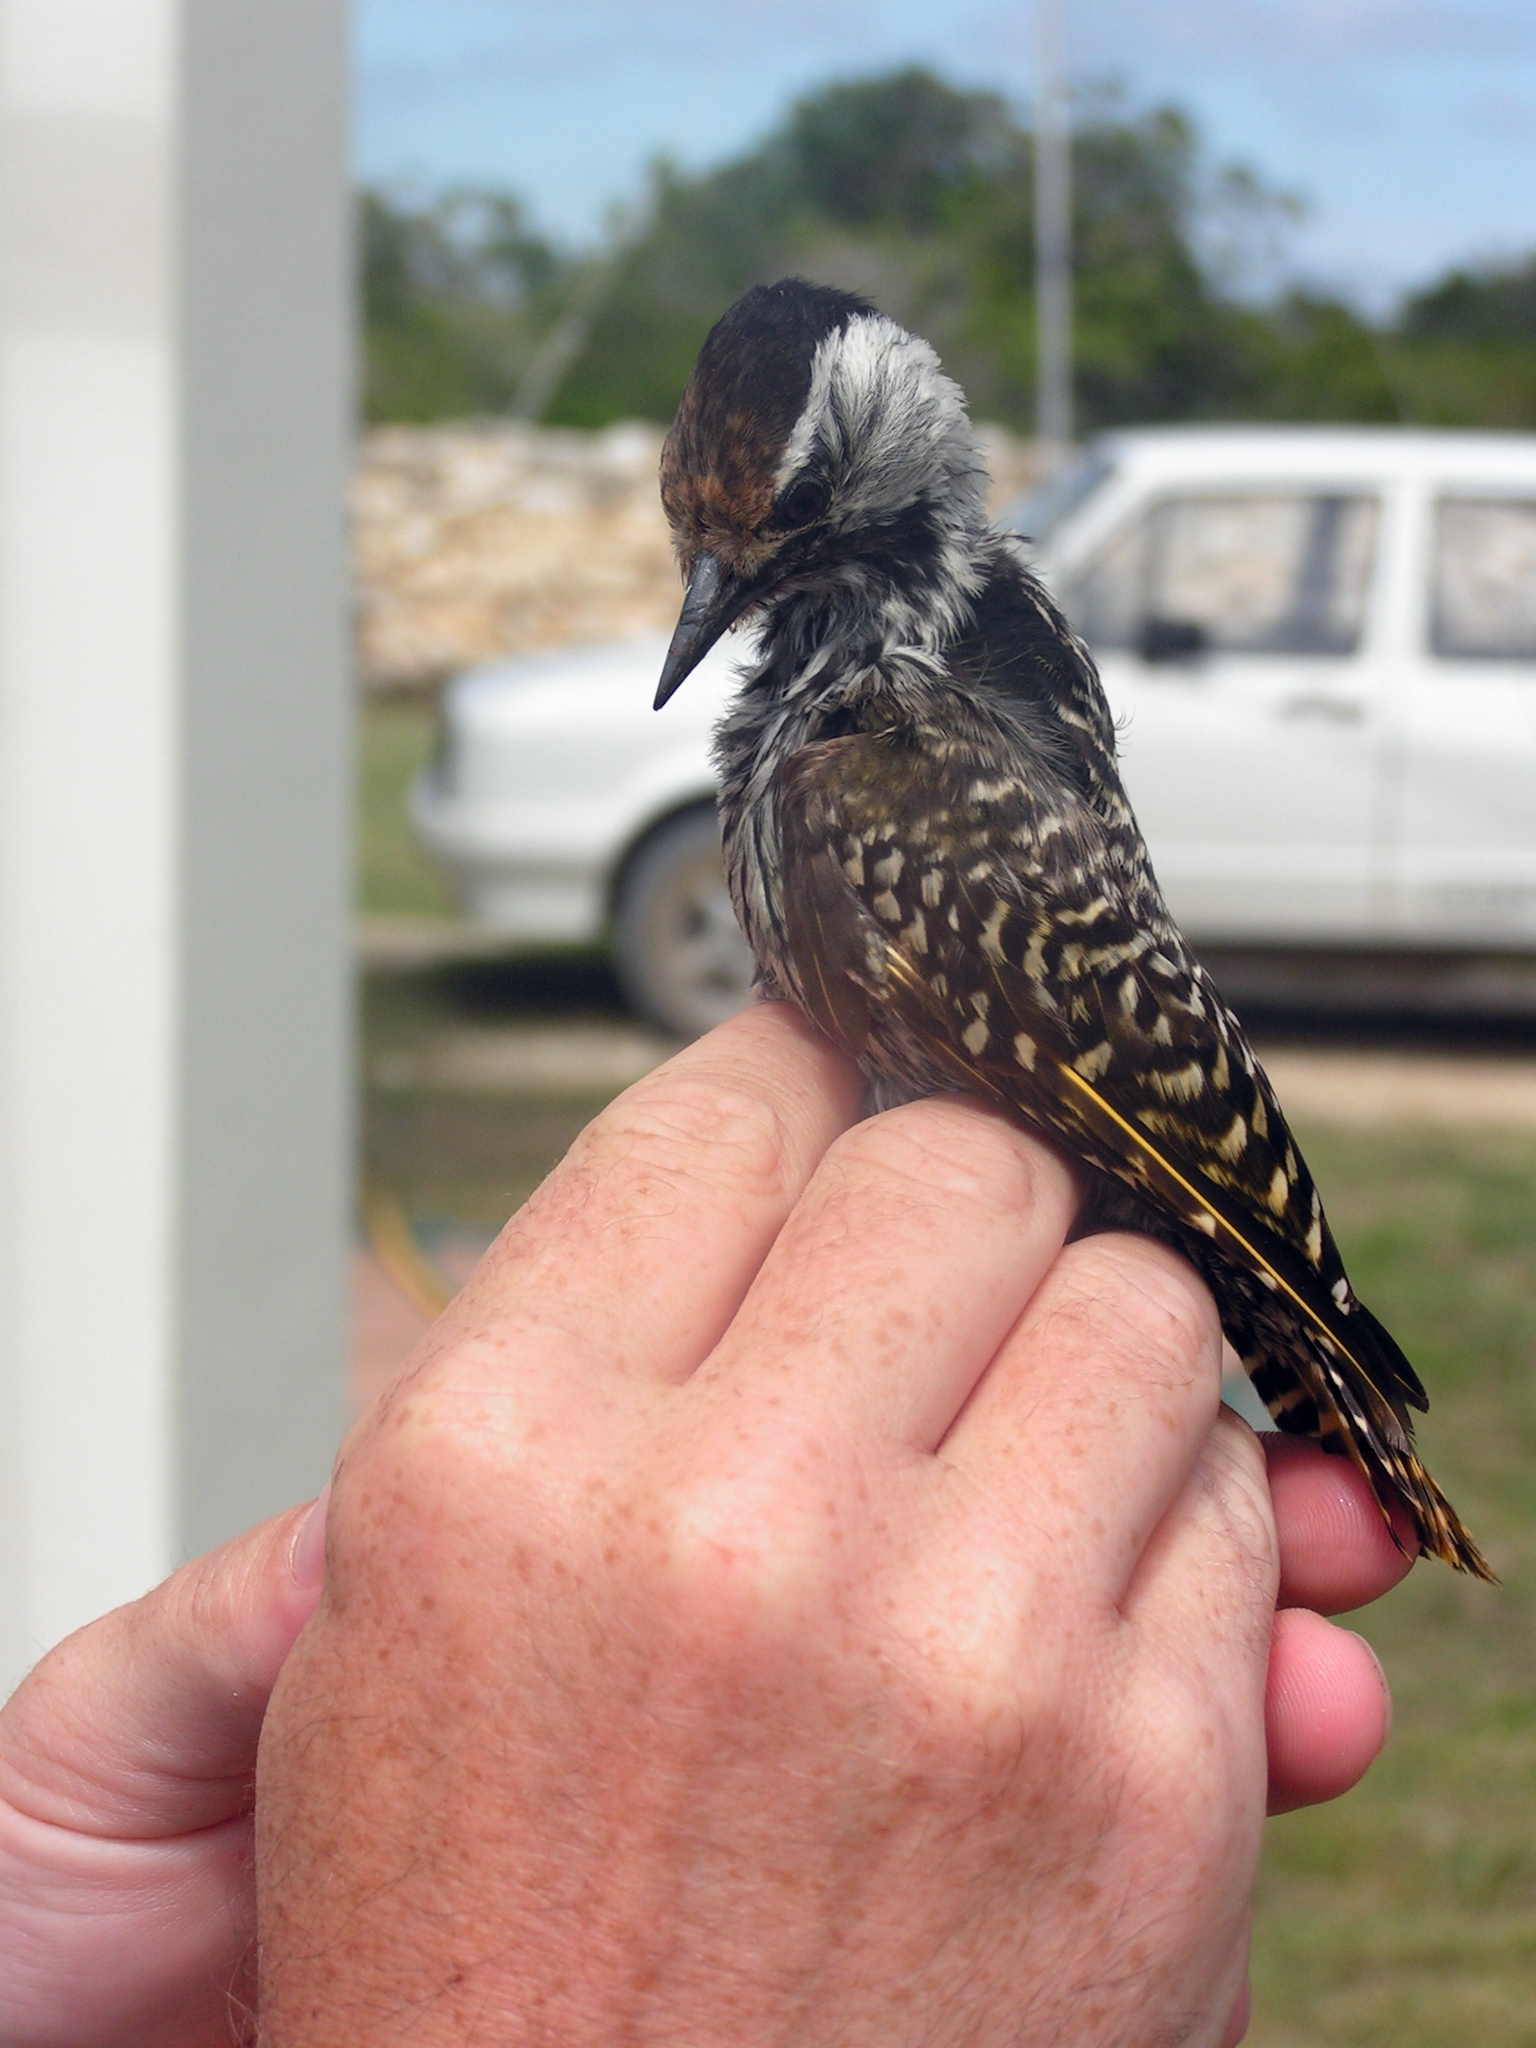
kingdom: Animalia
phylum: Chordata
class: Aves
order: Piciformes
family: Picidae
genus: Dendropicos
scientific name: Dendropicos fuscescens
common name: Cardinal woodpecker
